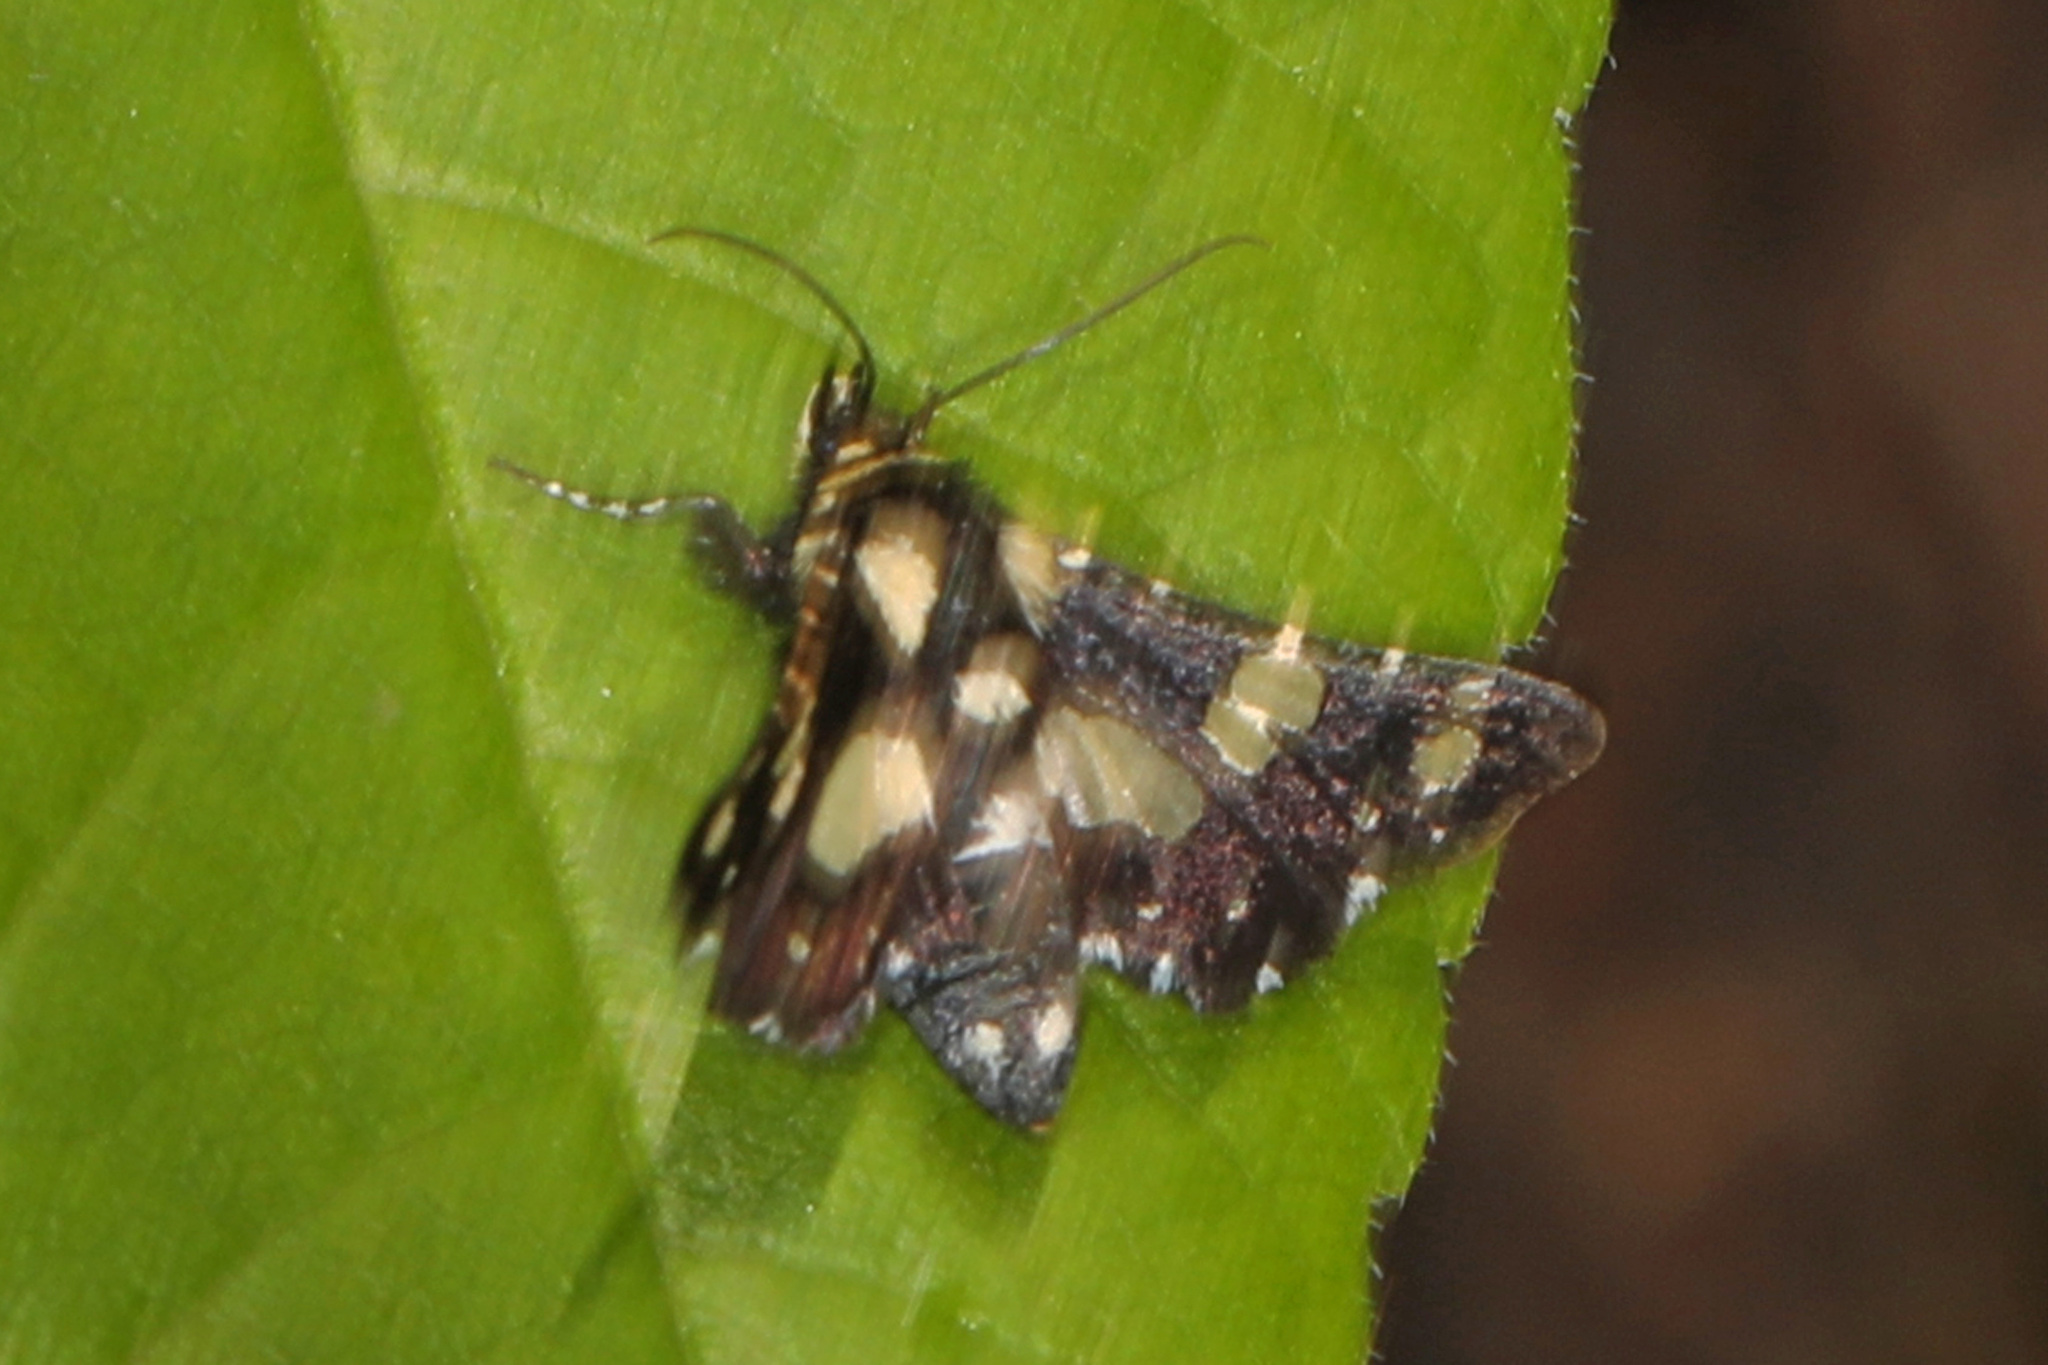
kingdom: Animalia
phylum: Arthropoda
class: Insecta
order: Lepidoptera
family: Thyrididae
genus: Pseudothyris
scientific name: Pseudothyris sepulchralis
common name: Mournful thyris moth
